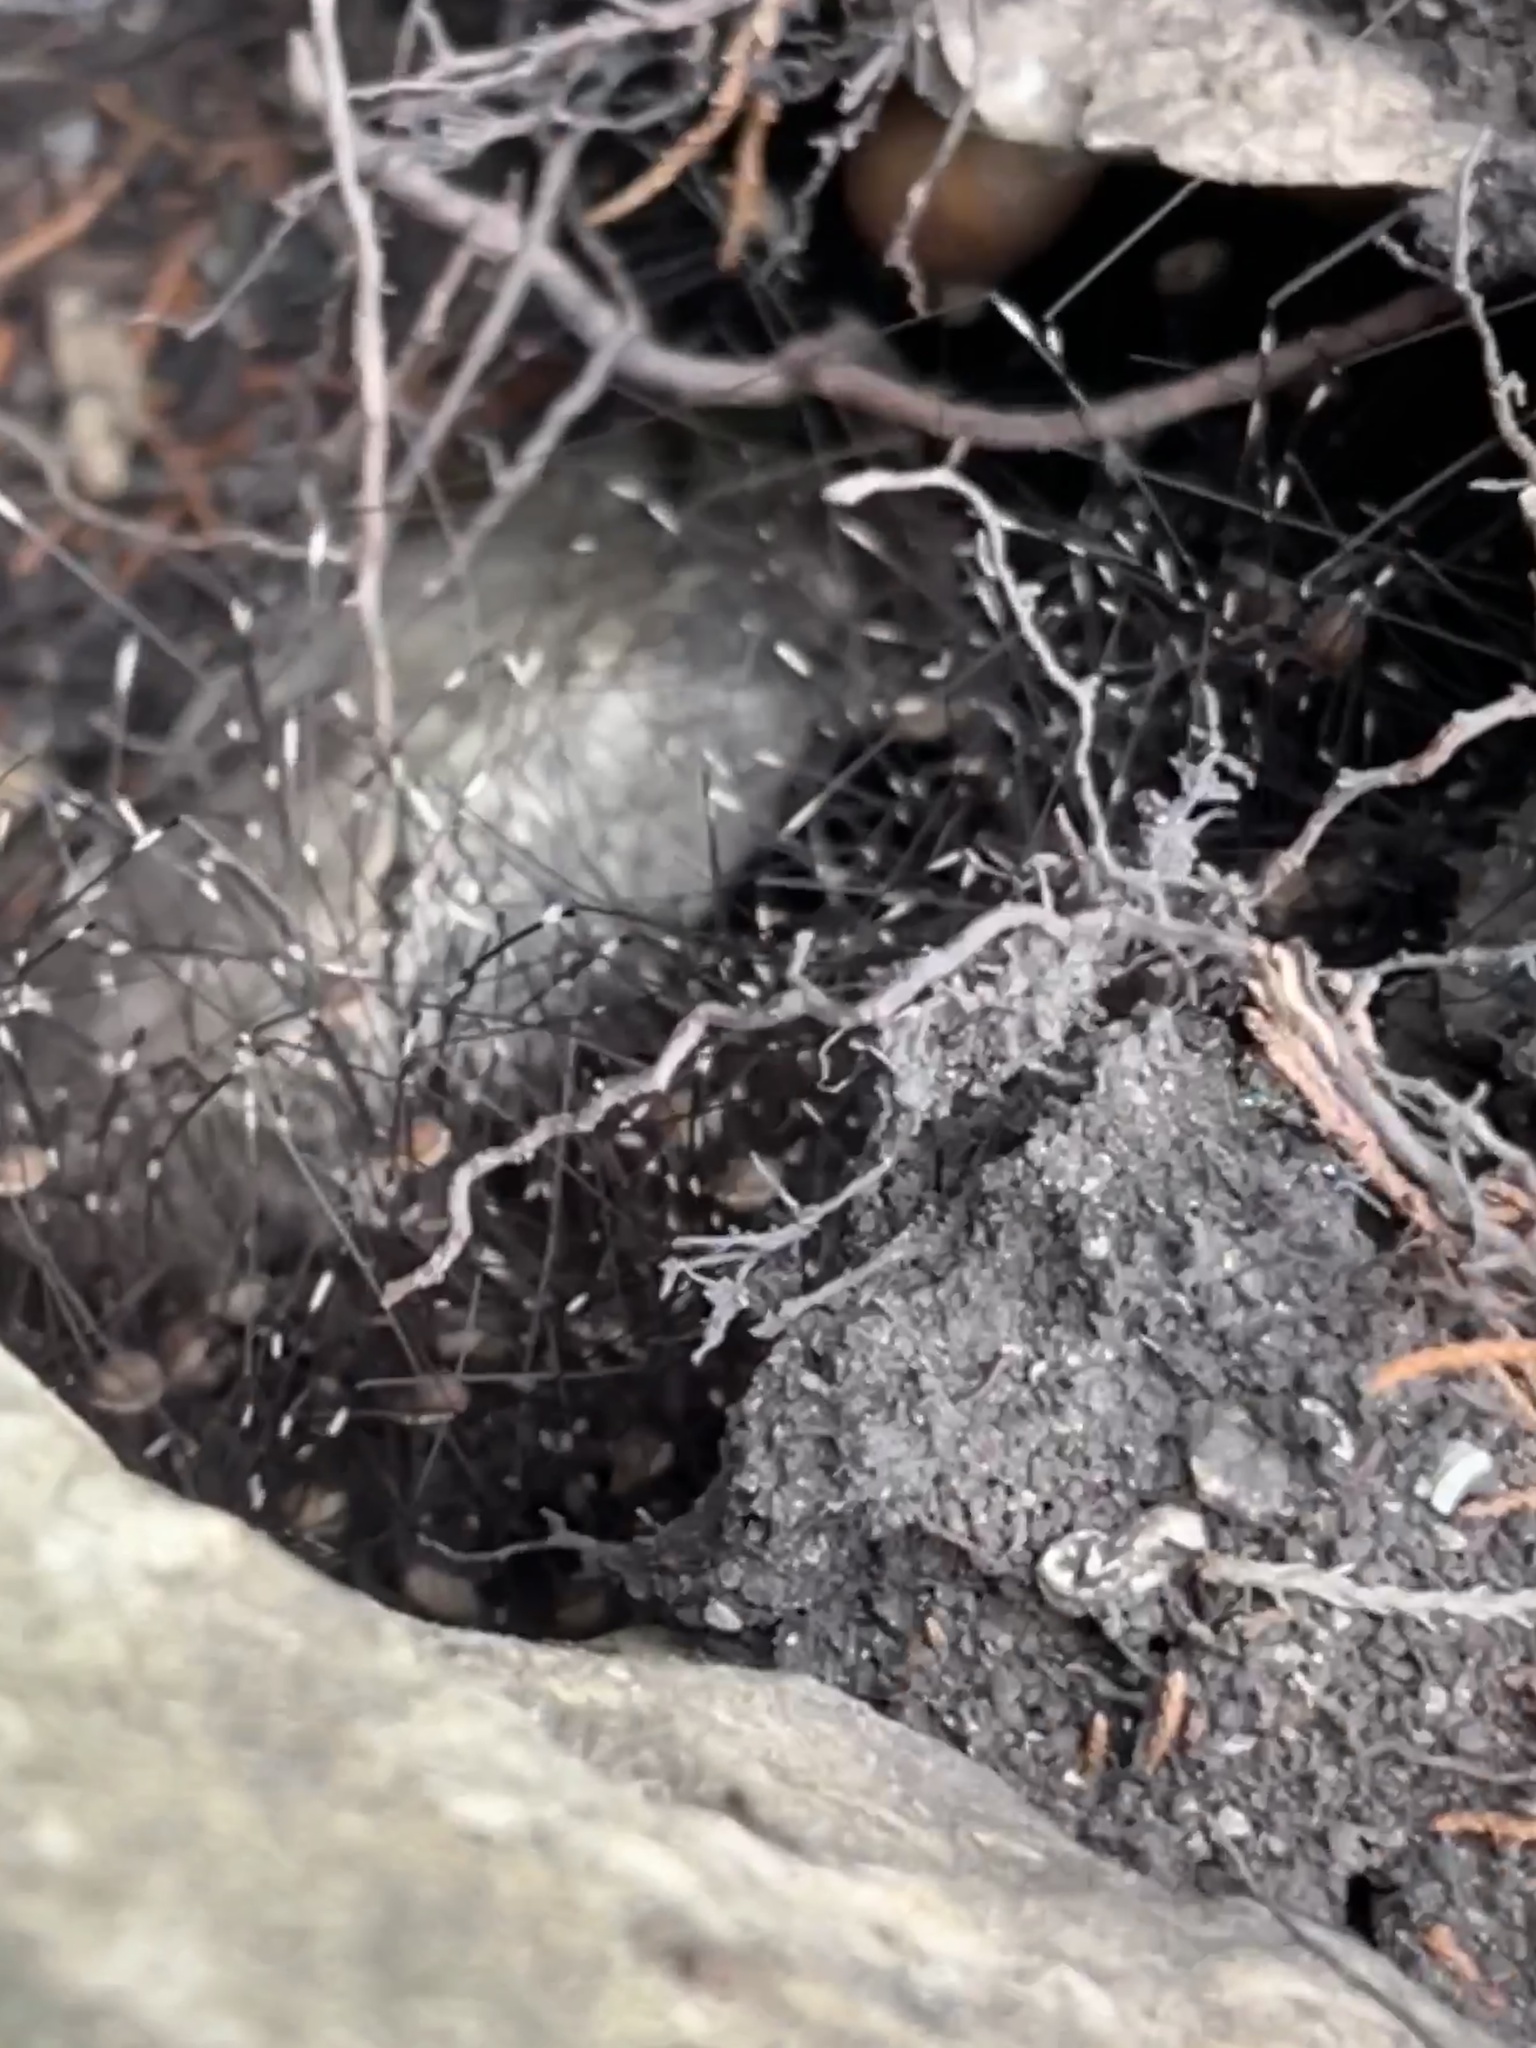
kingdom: Animalia
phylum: Arthropoda
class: Arachnida
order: Opiliones
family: Sclerosomatidae
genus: Leiobunum
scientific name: Leiobunum townsendi
